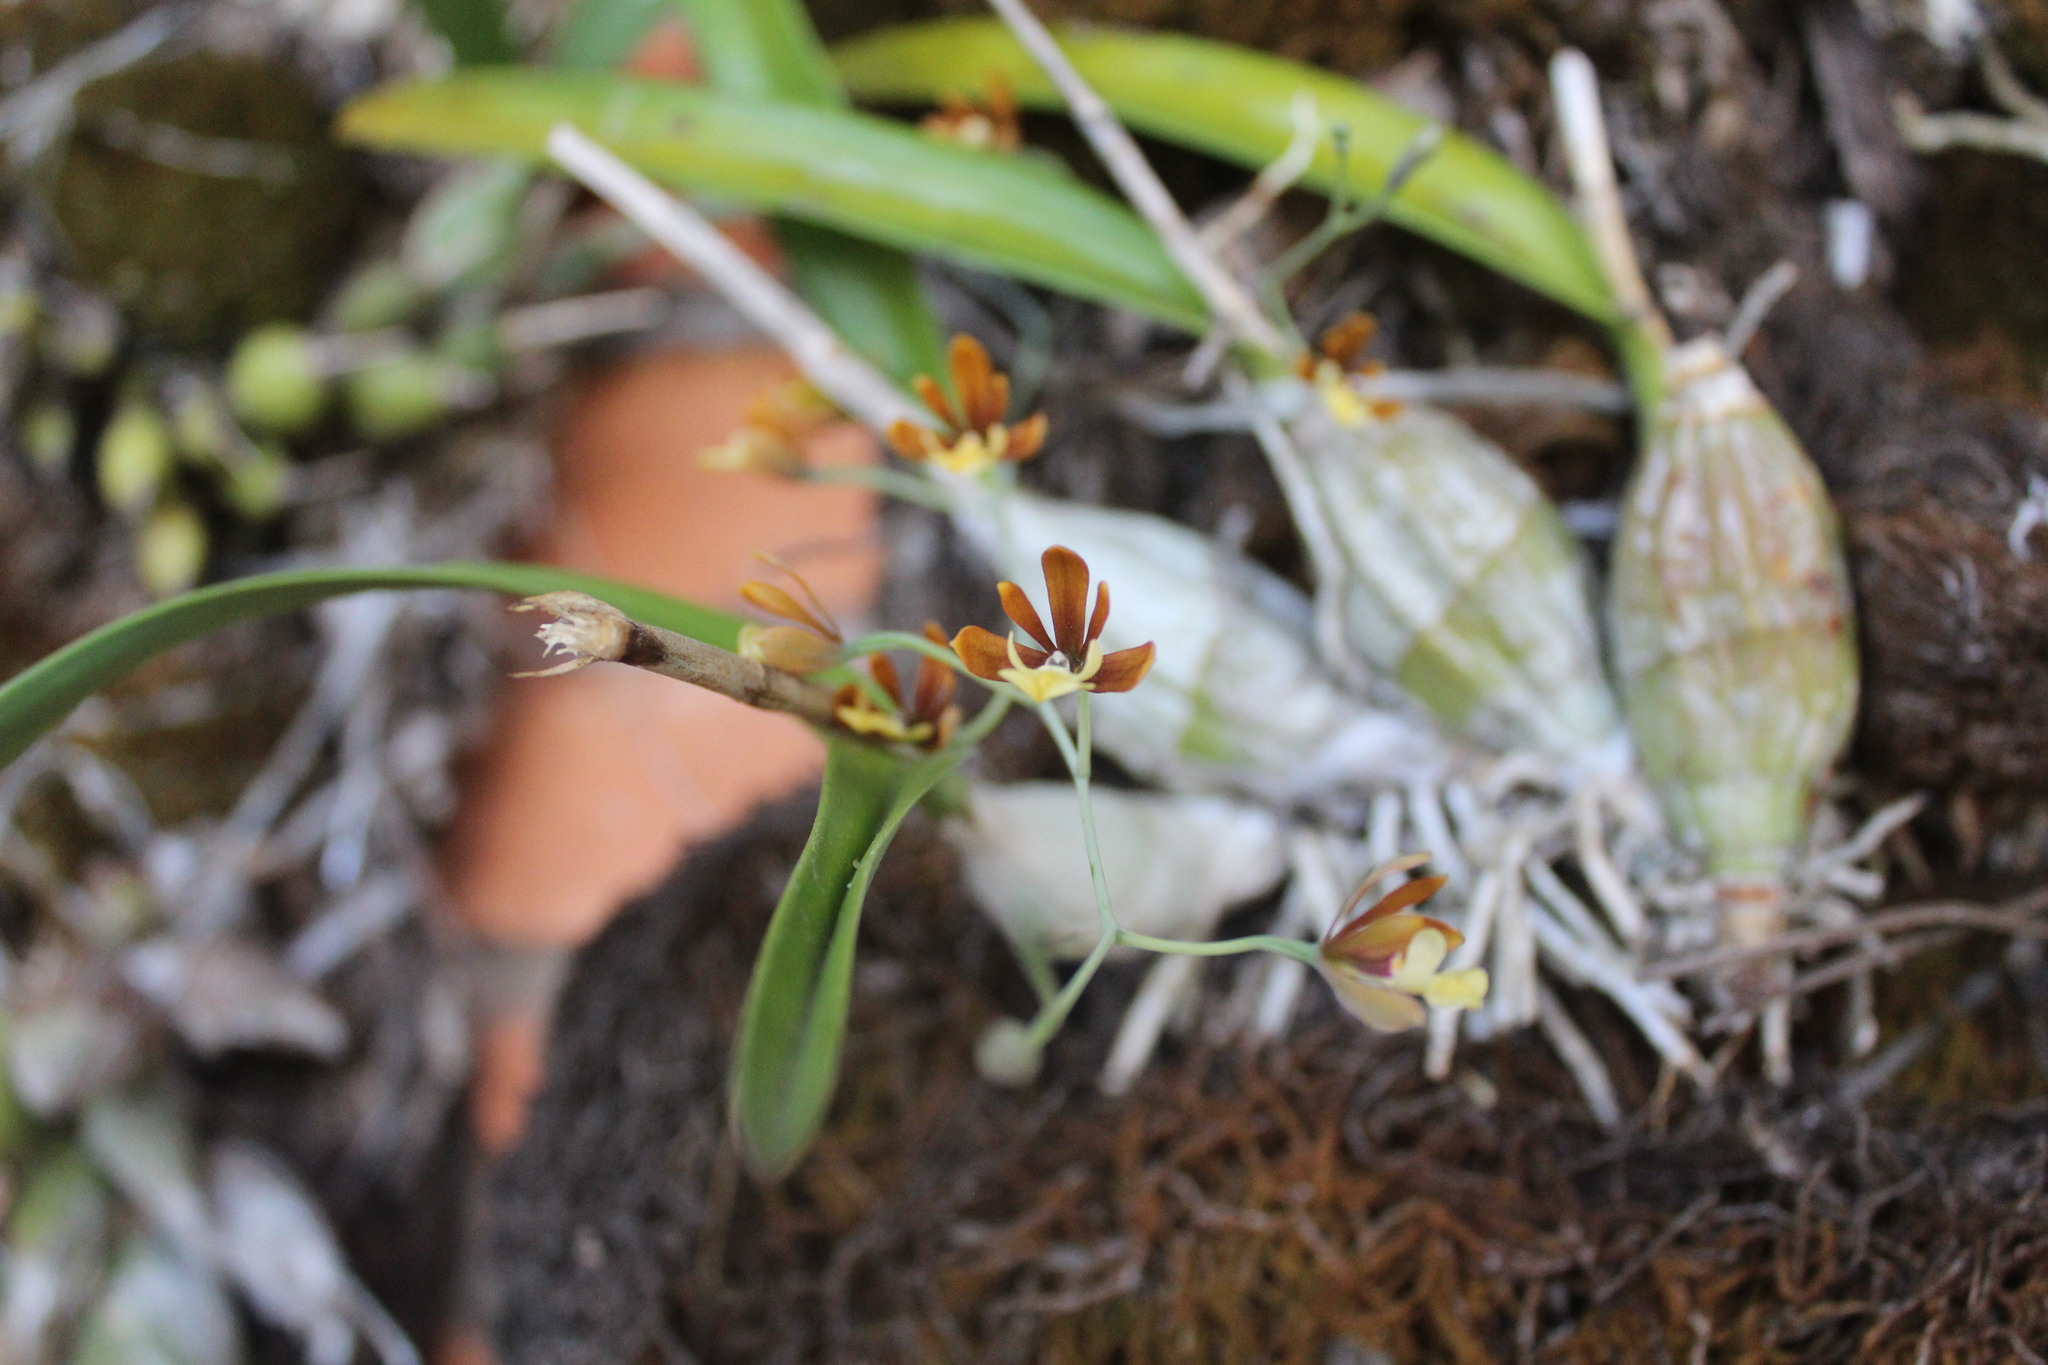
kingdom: Plantae
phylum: Tracheophyta
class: Liliopsida
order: Asparagales
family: Orchidaceae
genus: Prosthechea
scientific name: Prosthechea concolor
